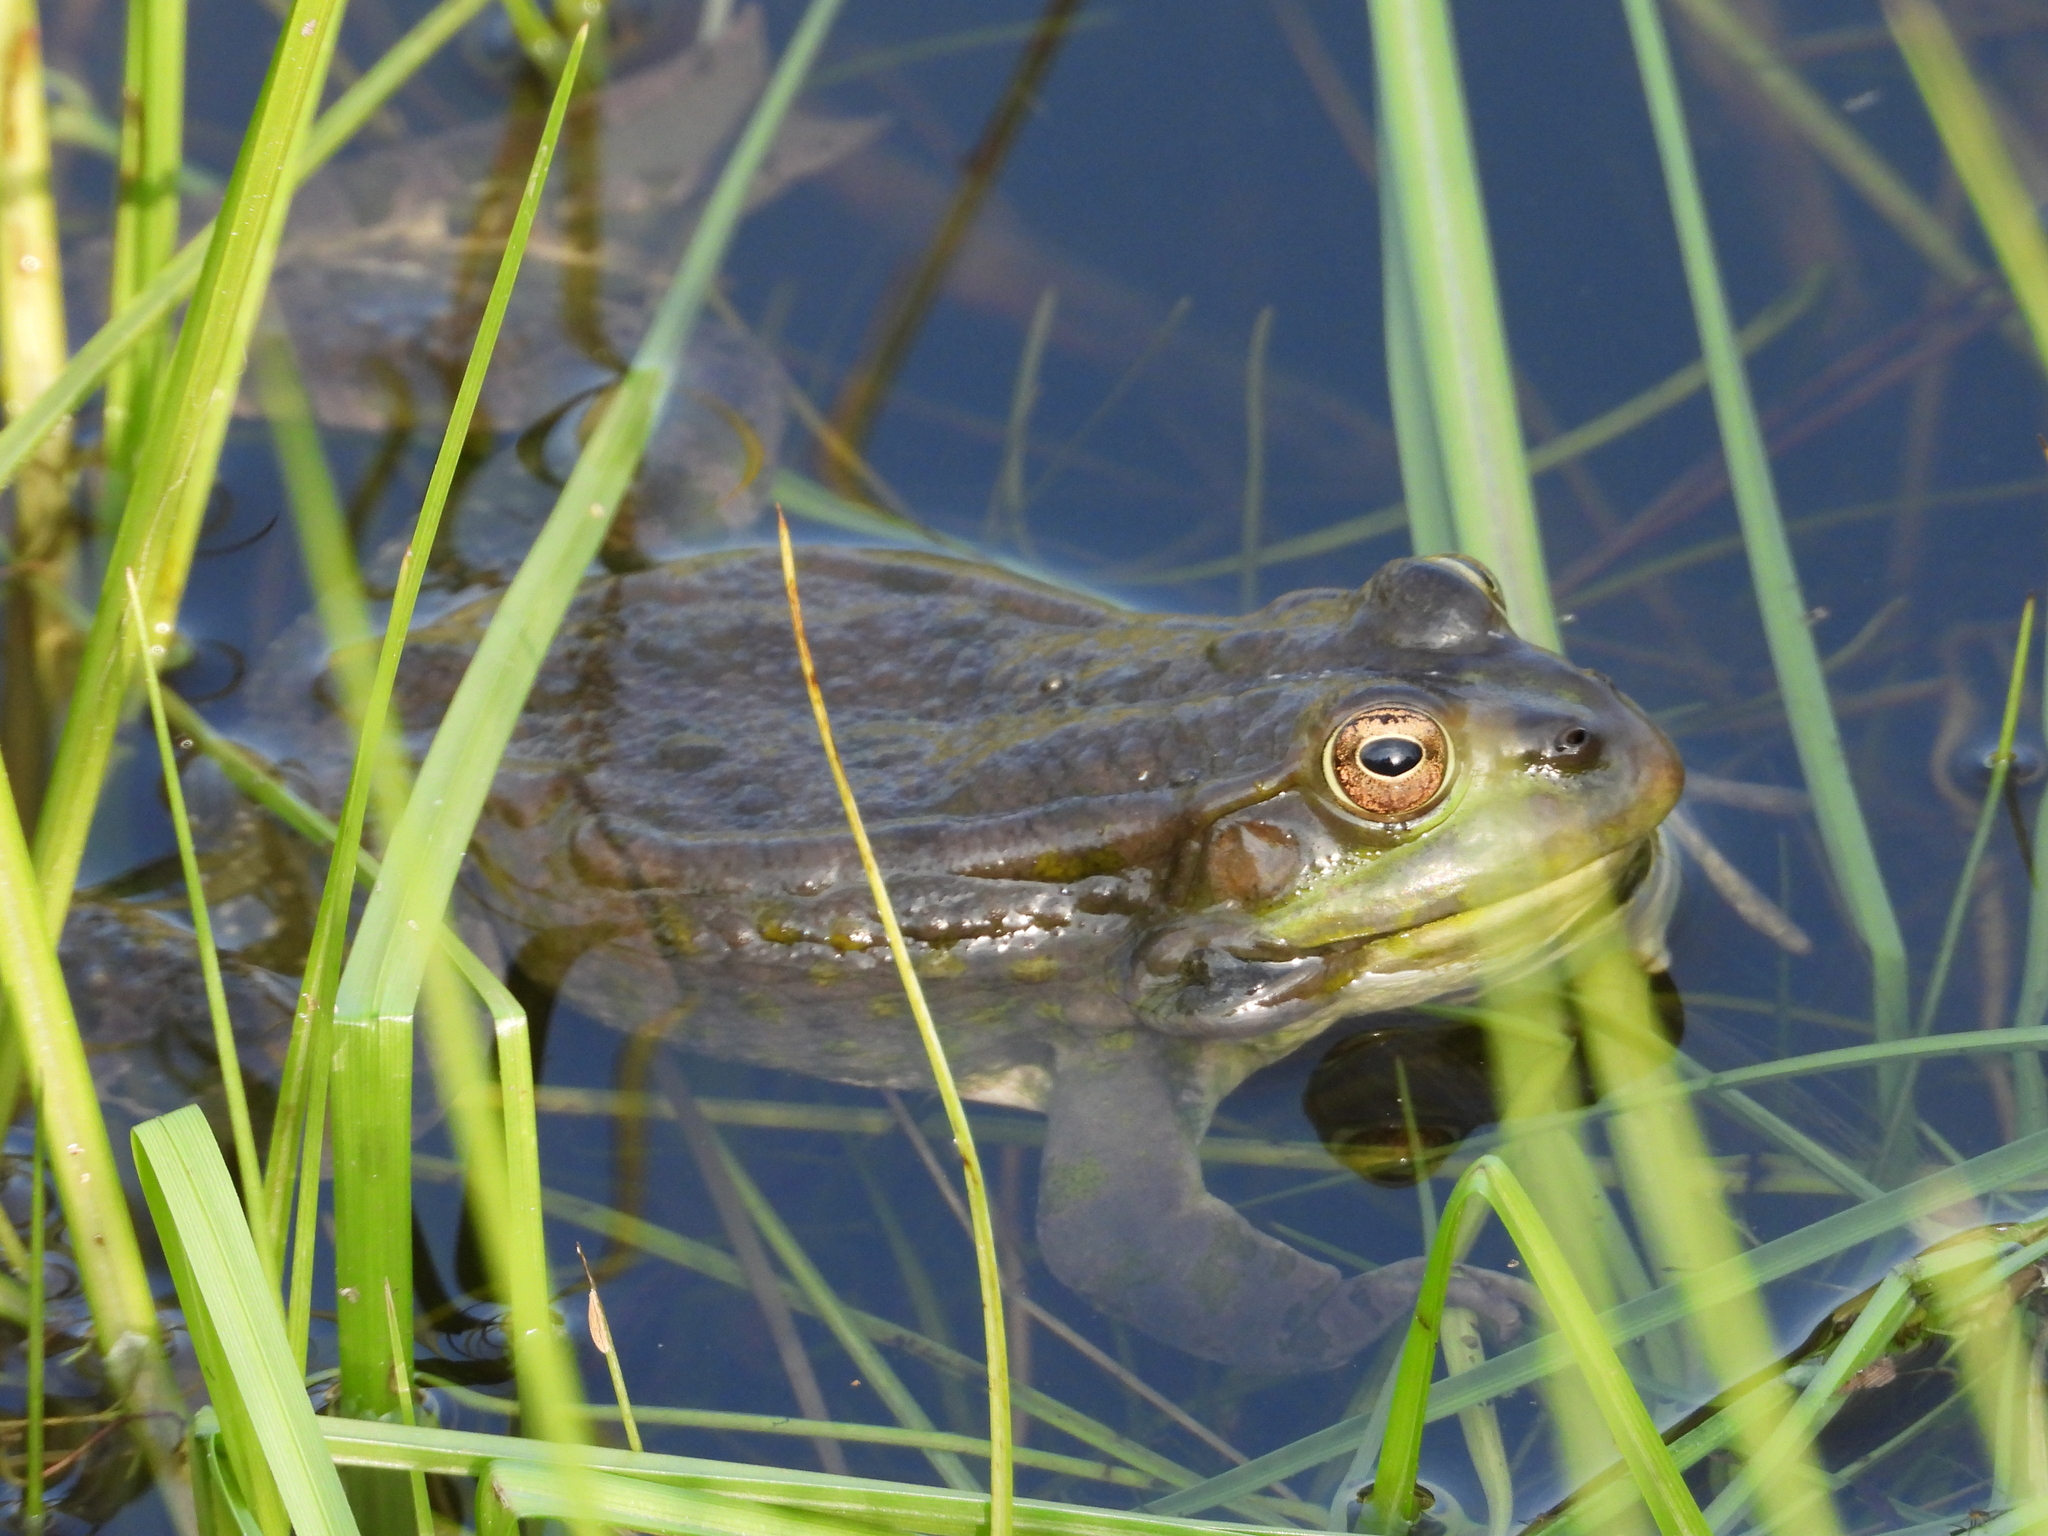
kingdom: Animalia
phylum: Chordata
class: Amphibia
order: Anura
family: Ranidae
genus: Pelophylax
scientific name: Pelophylax ridibundus
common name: Marsh frog
